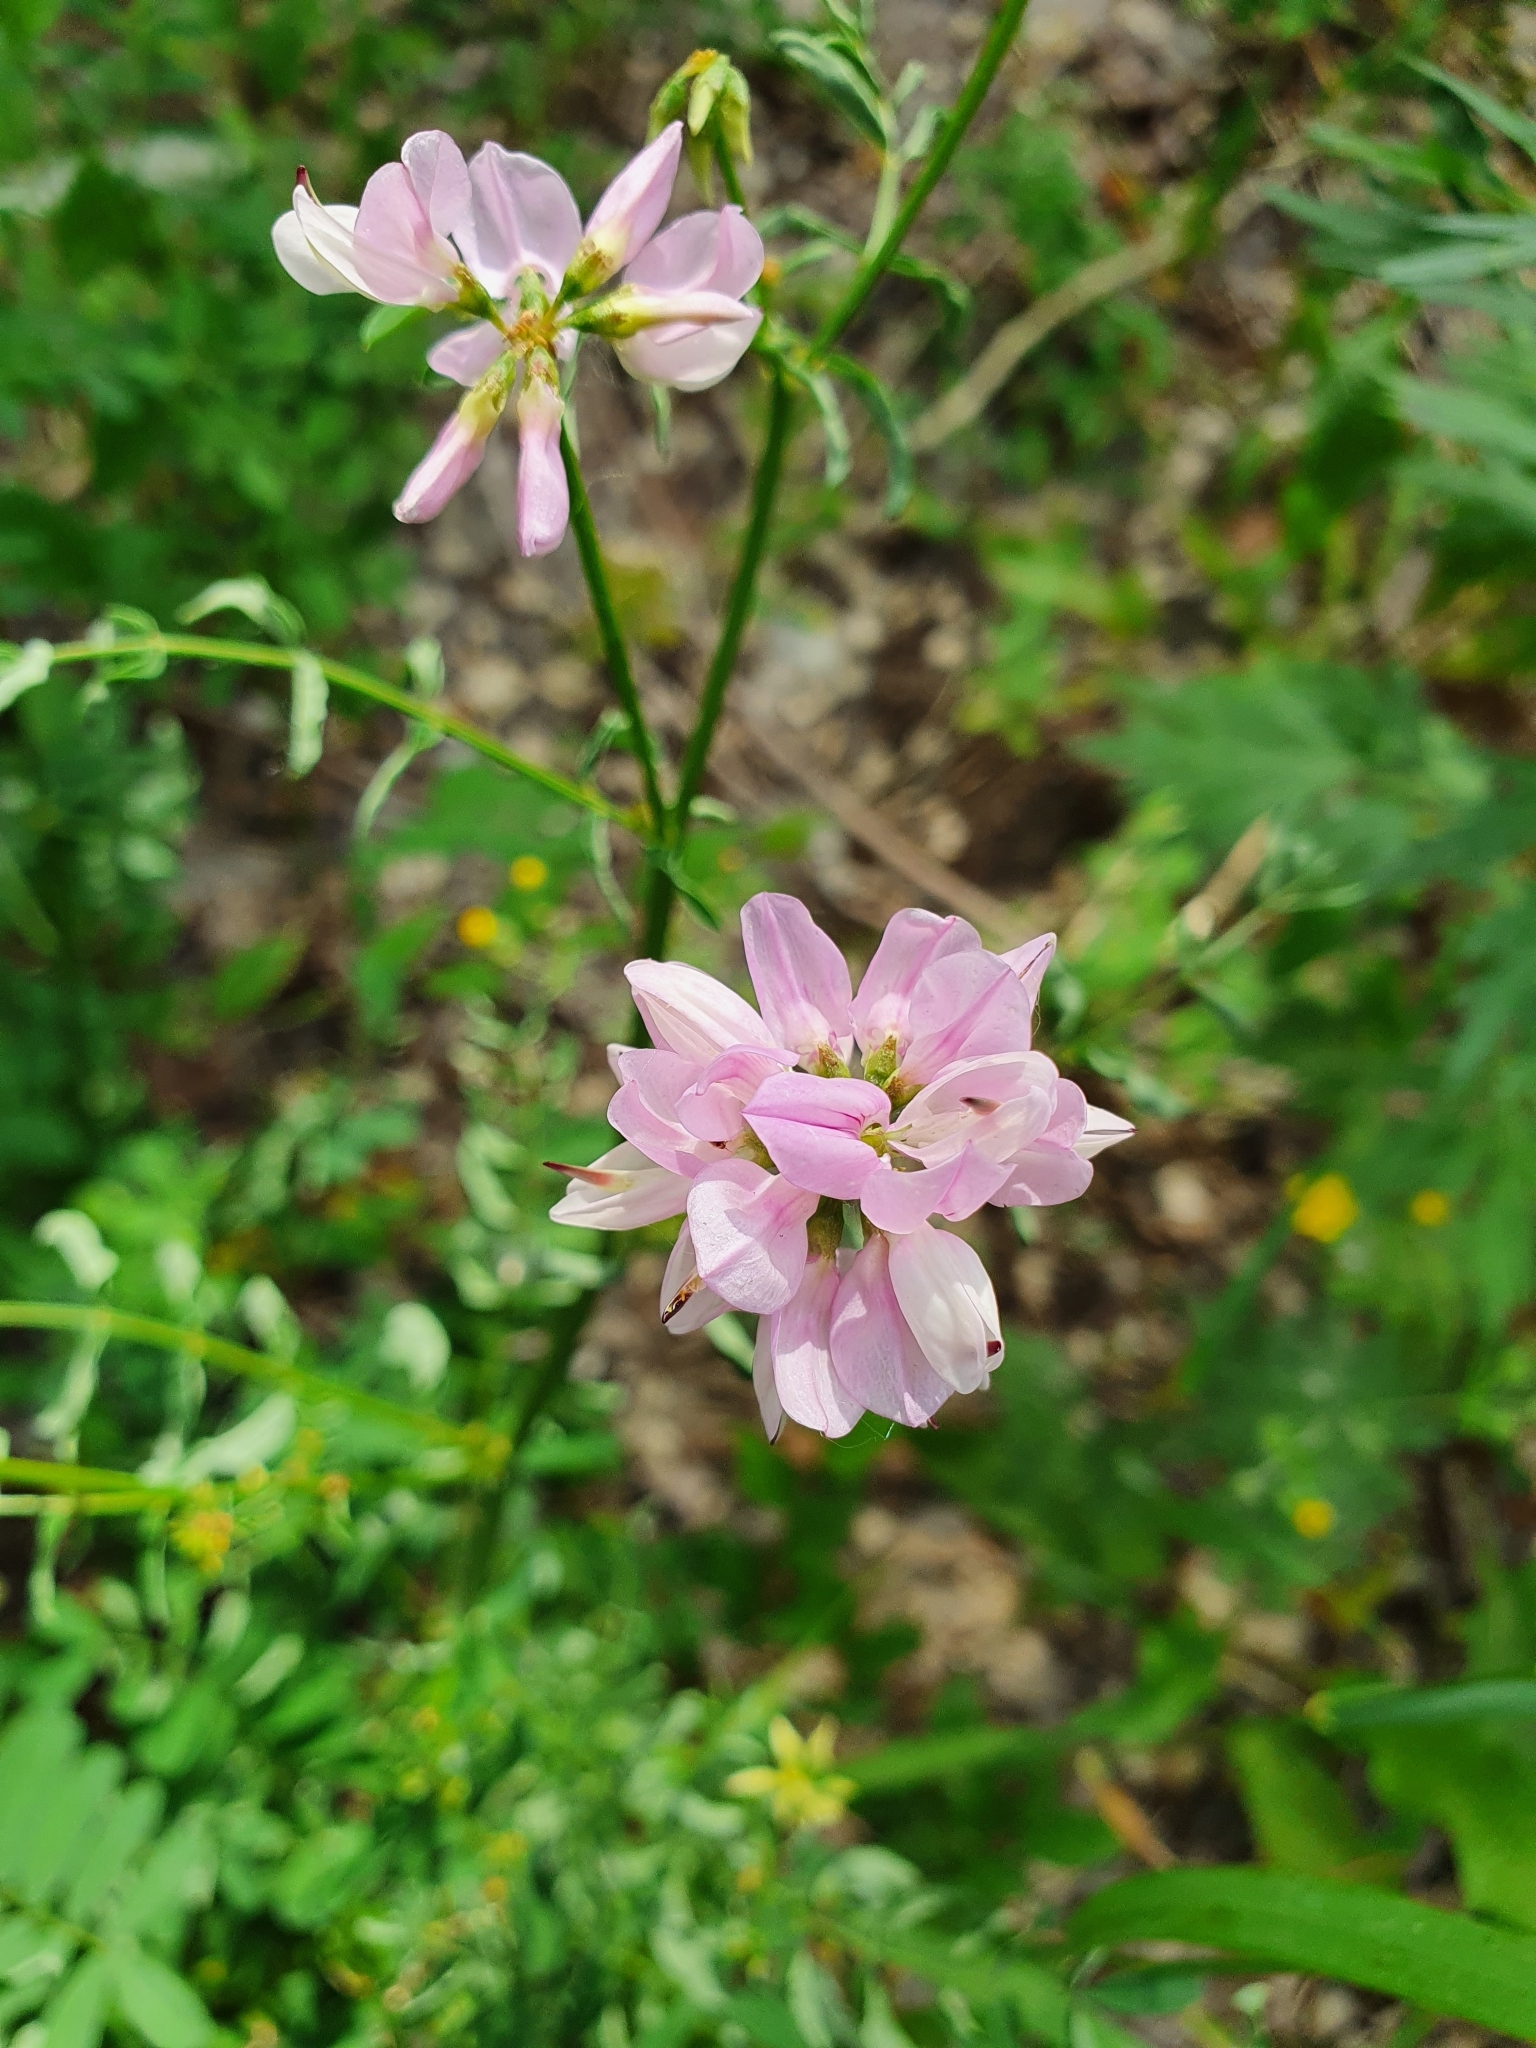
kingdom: Plantae
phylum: Tracheophyta
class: Magnoliopsida
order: Fabales
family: Fabaceae
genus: Coronilla
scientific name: Coronilla varia
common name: Crownvetch
